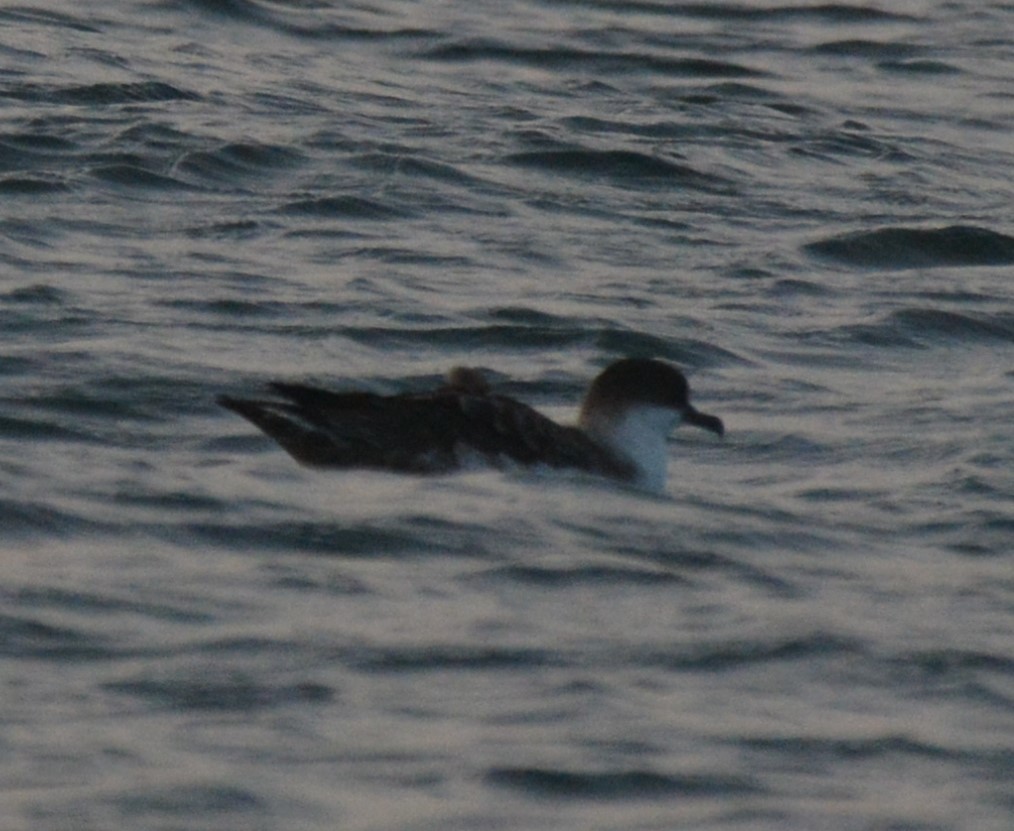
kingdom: Animalia
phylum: Chordata
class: Aves
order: Procellariiformes
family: Procellariidae
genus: Puffinus
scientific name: Puffinus gravis
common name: Great shearwater
